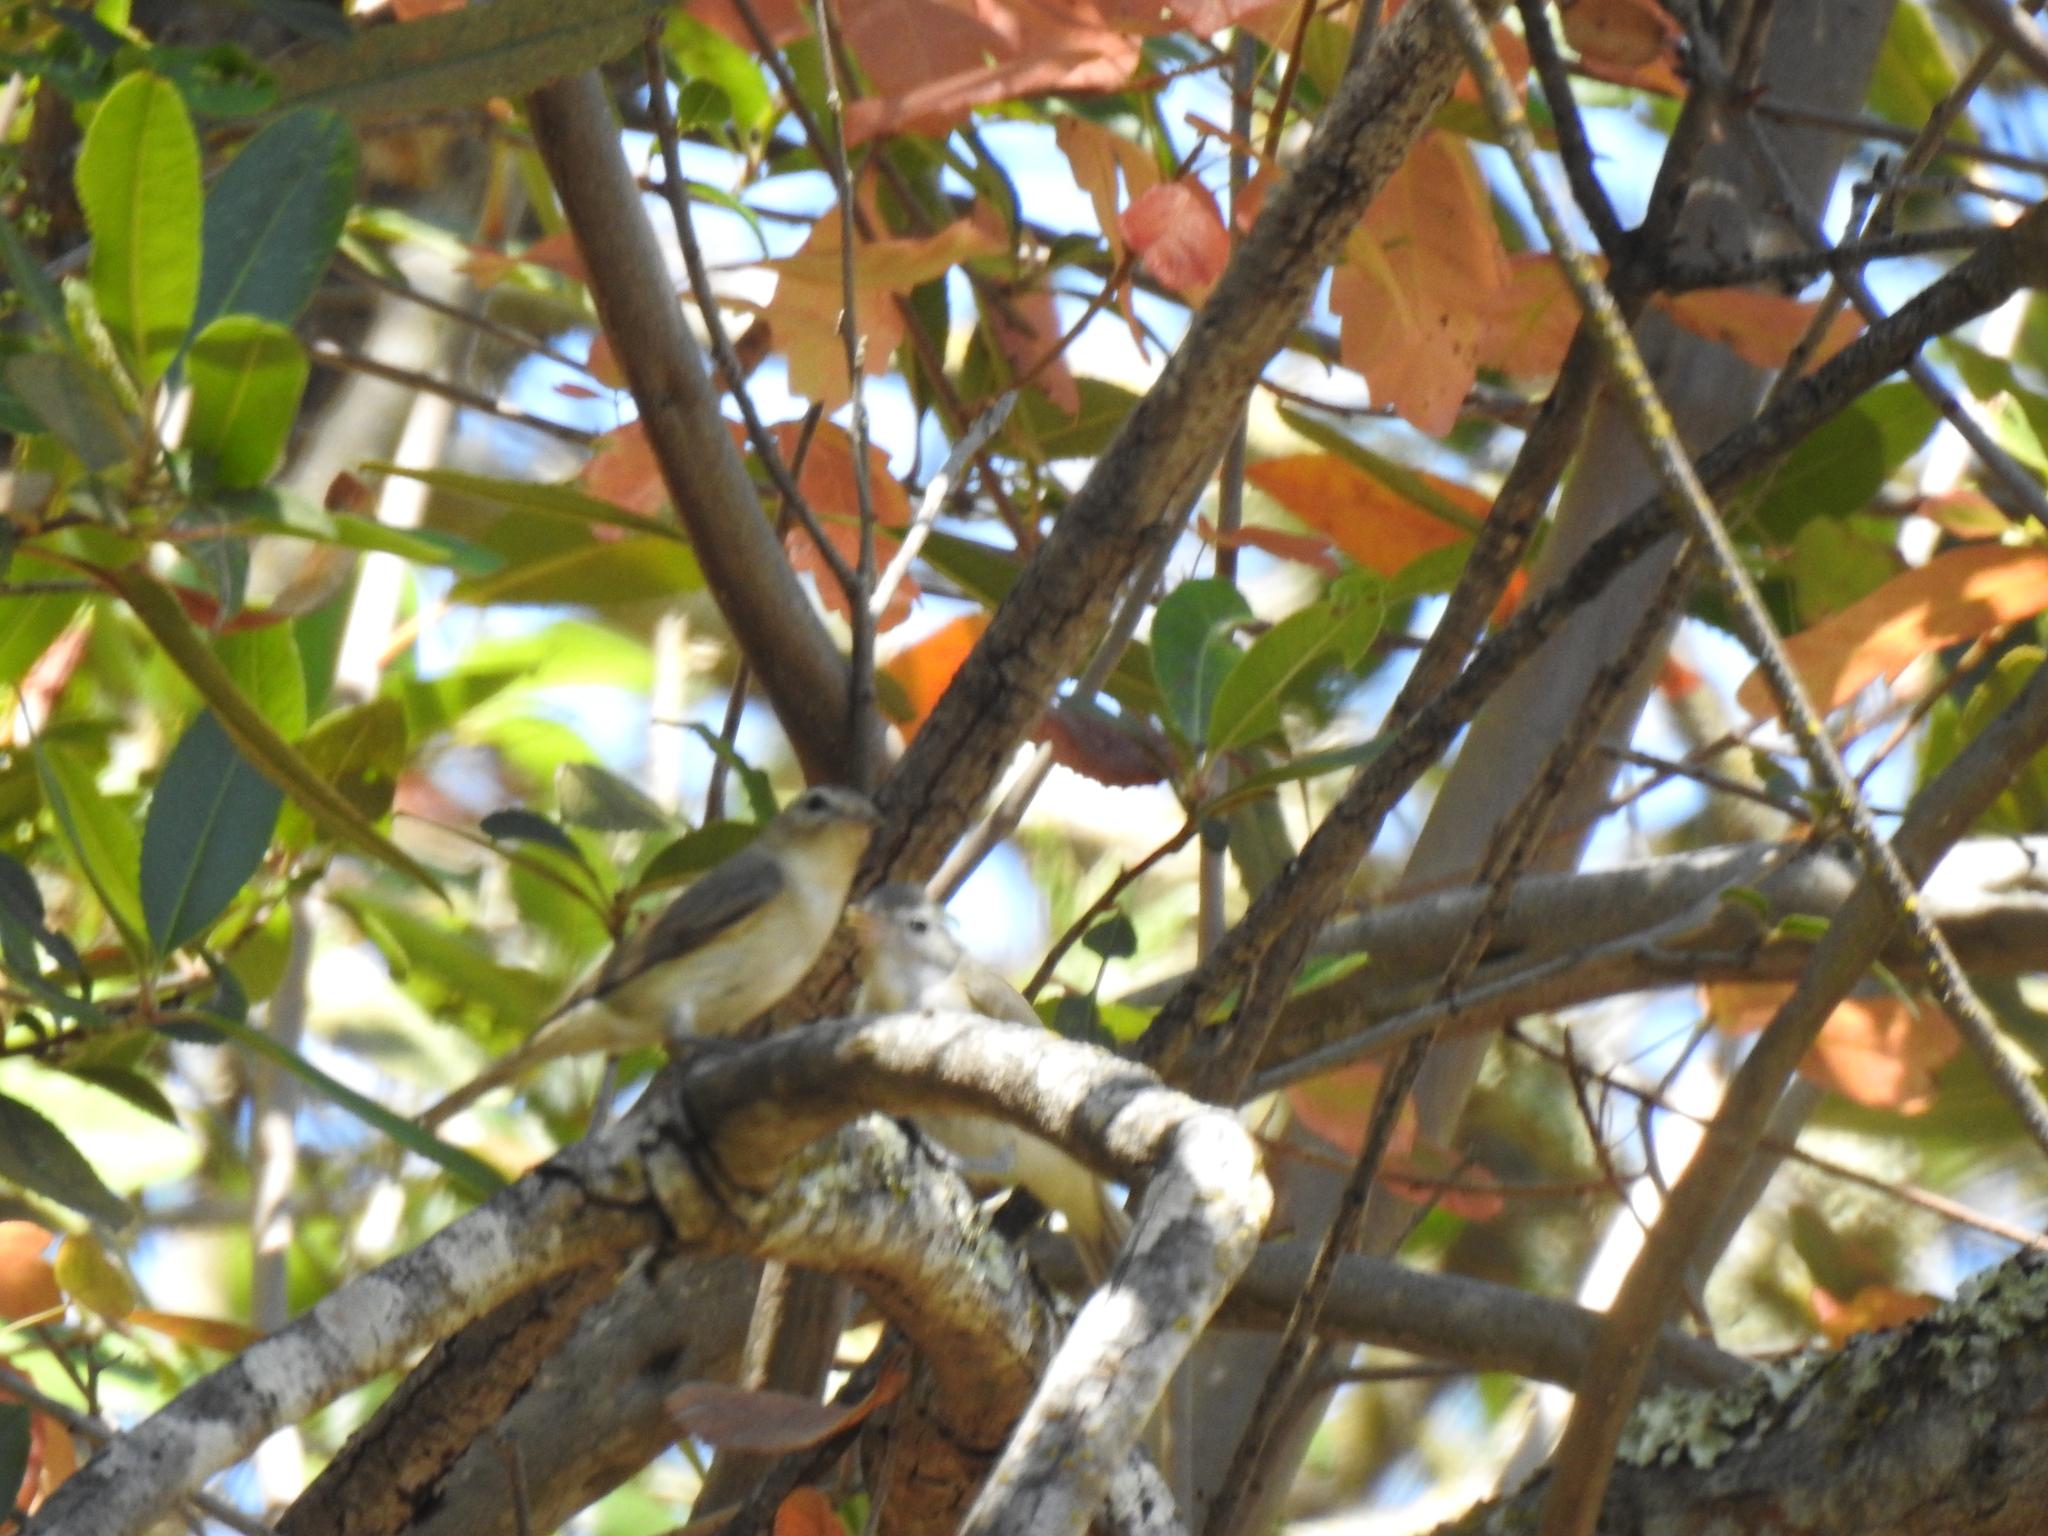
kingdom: Animalia
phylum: Chordata
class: Aves
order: Passeriformes
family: Vireonidae
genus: Vireo
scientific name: Vireo gilvus
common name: Warbling vireo
